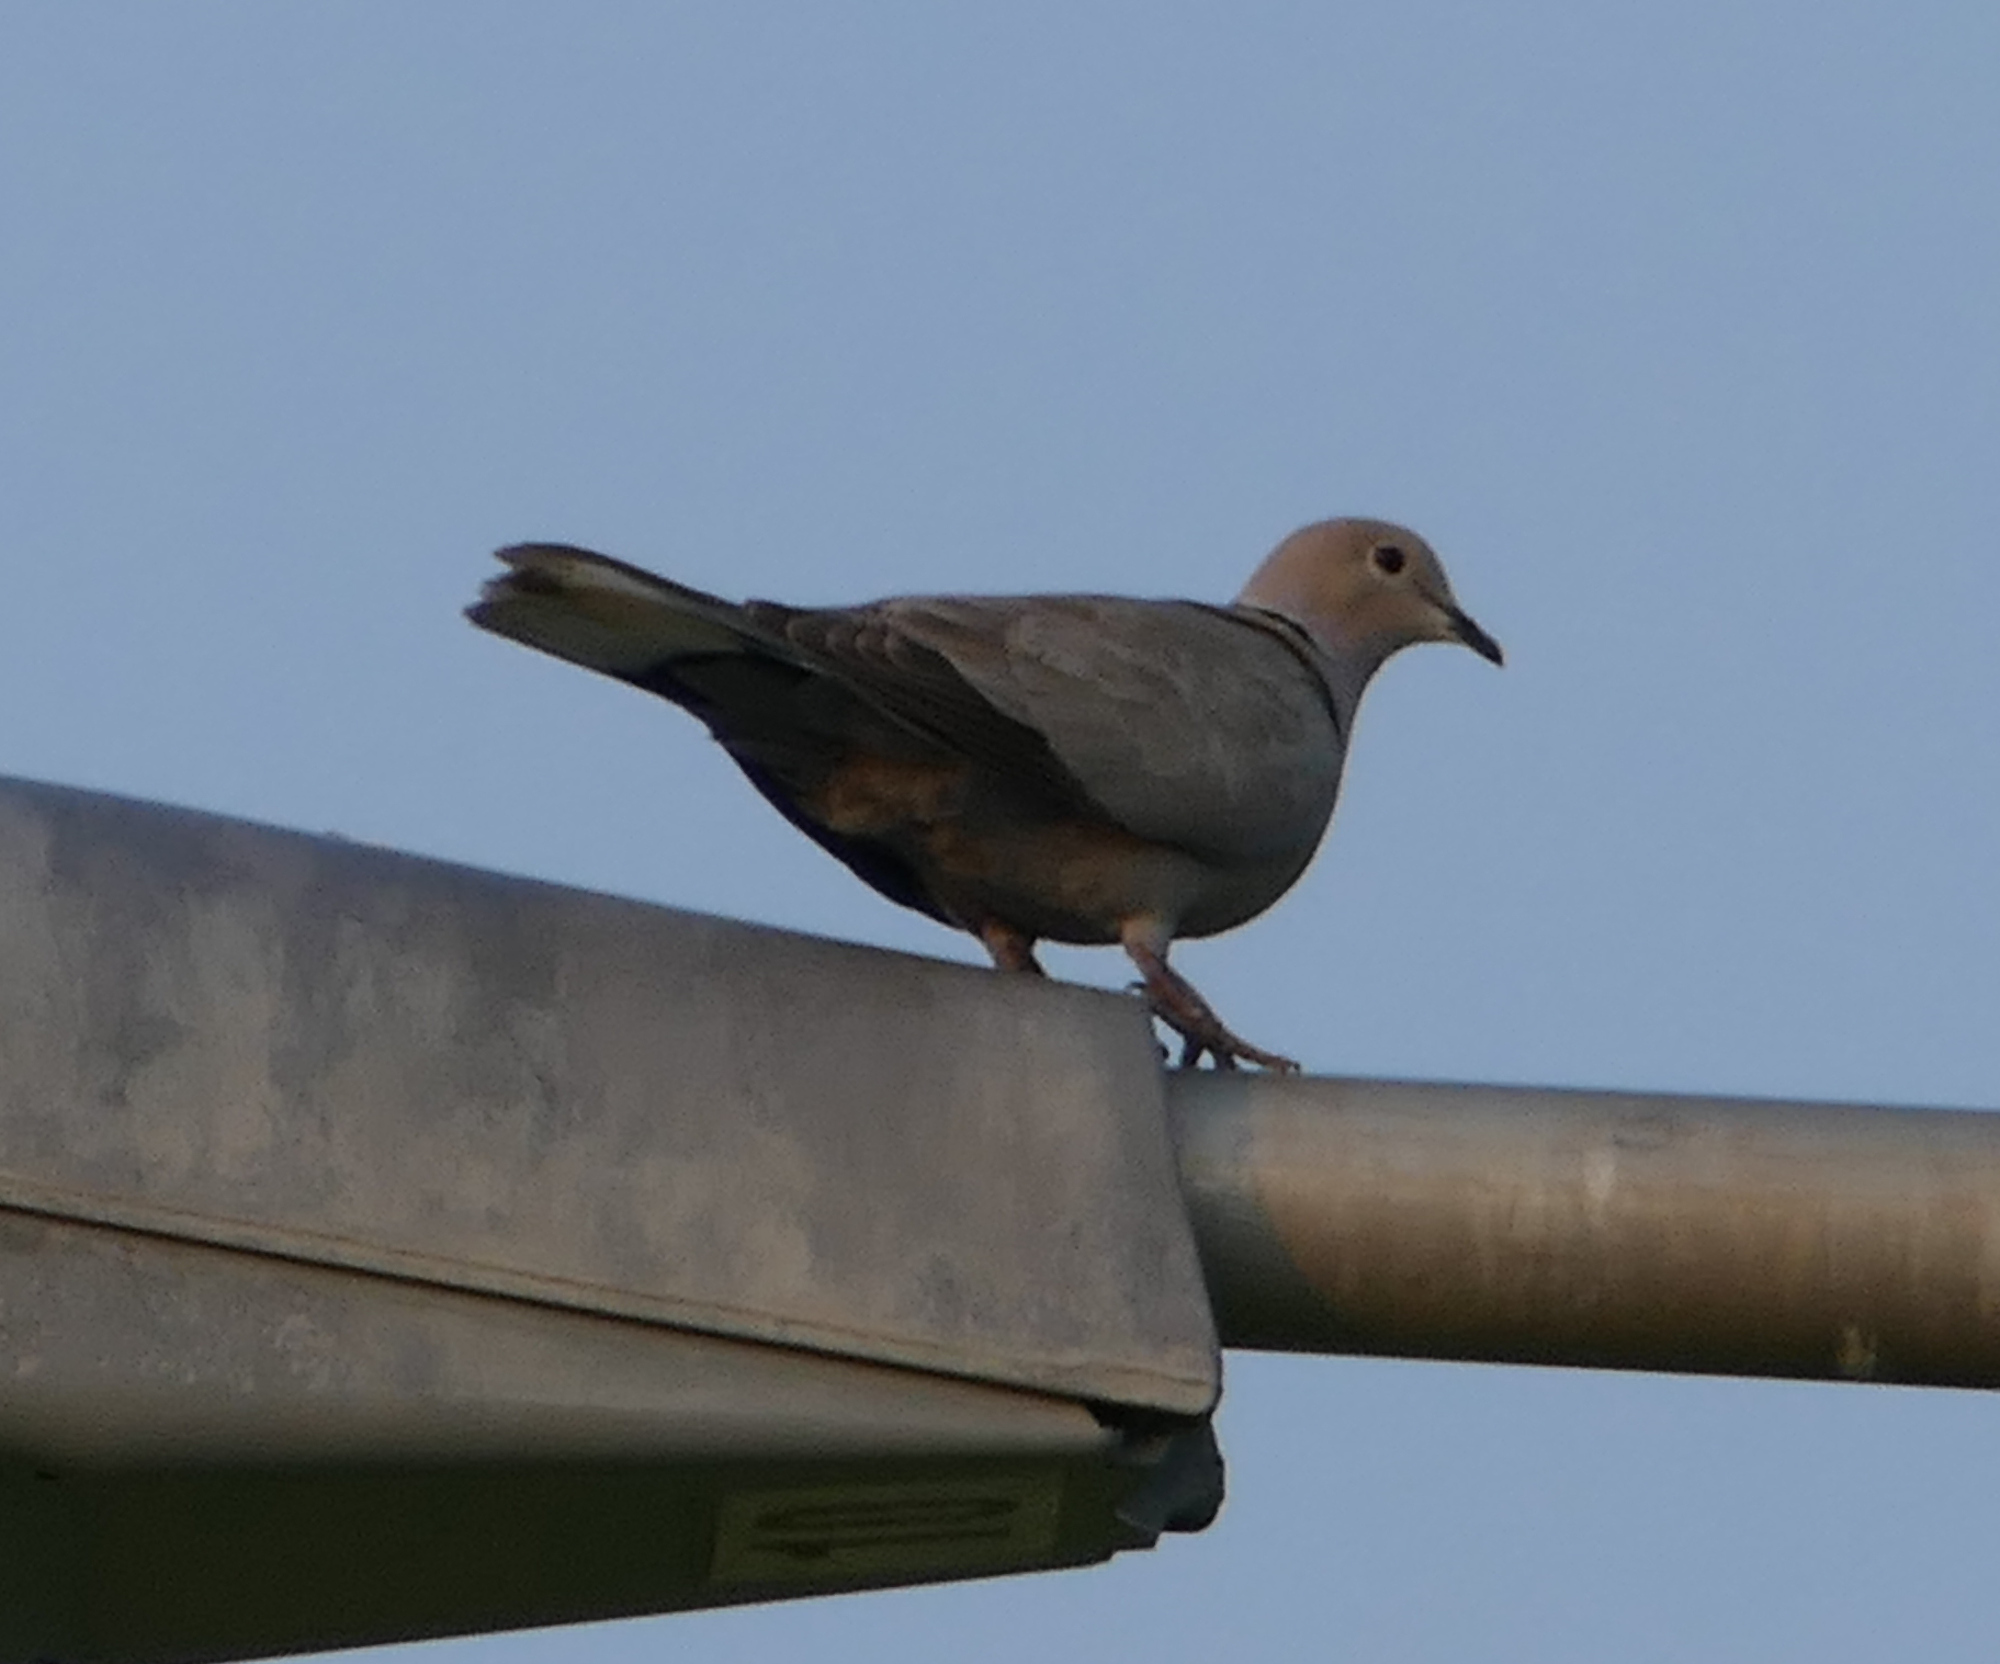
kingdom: Animalia
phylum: Chordata
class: Aves
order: Columbiformes
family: Columbidae
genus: Streptopelia
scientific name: Streptopelia decaocto
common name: Eurasian collared dove
